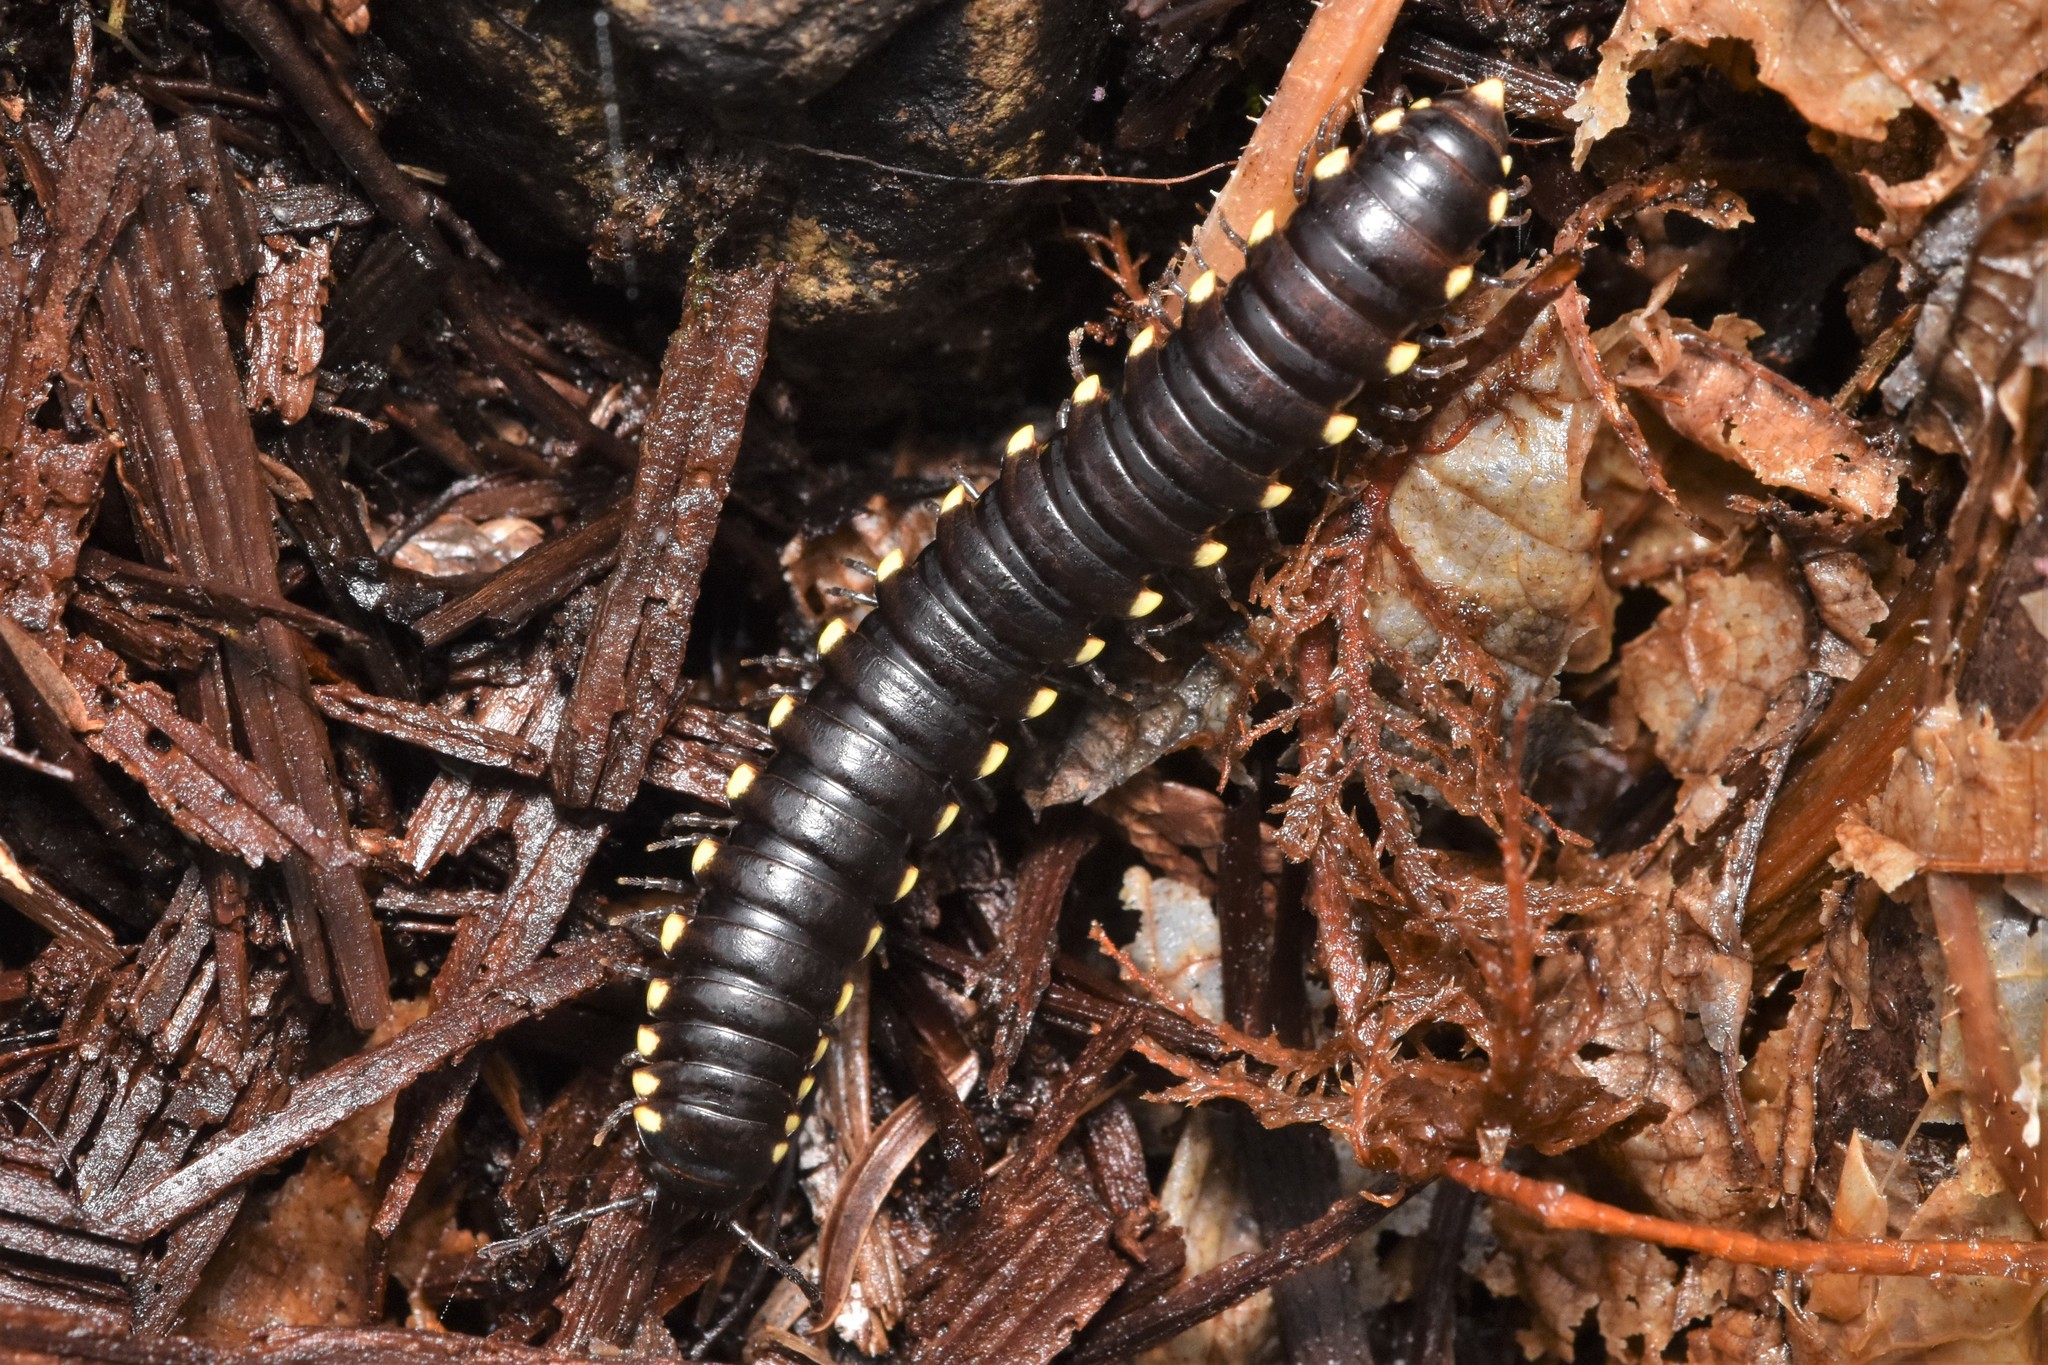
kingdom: Animalia
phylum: Arthropoda
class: Diplopoda
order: Polydesmida
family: Xystodesmidae
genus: Harpaphe
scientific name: Harpaphe haydeniana
